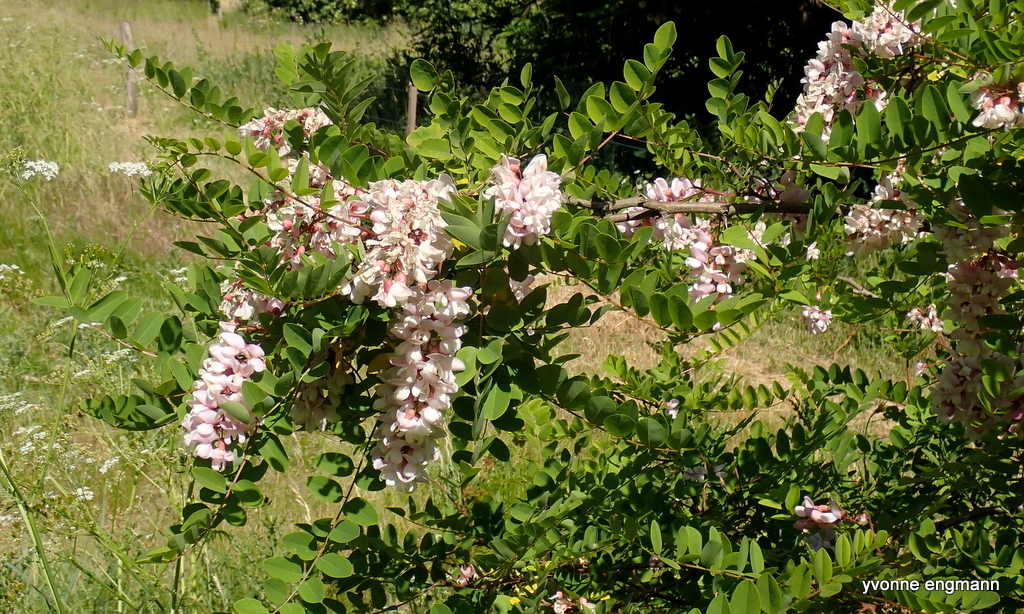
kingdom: Plantae
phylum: Tracheophyta
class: Magnoliopsida
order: Fabales
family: Fabaceae
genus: Robinia
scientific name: Robinia pseudoacacia
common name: Black locust
